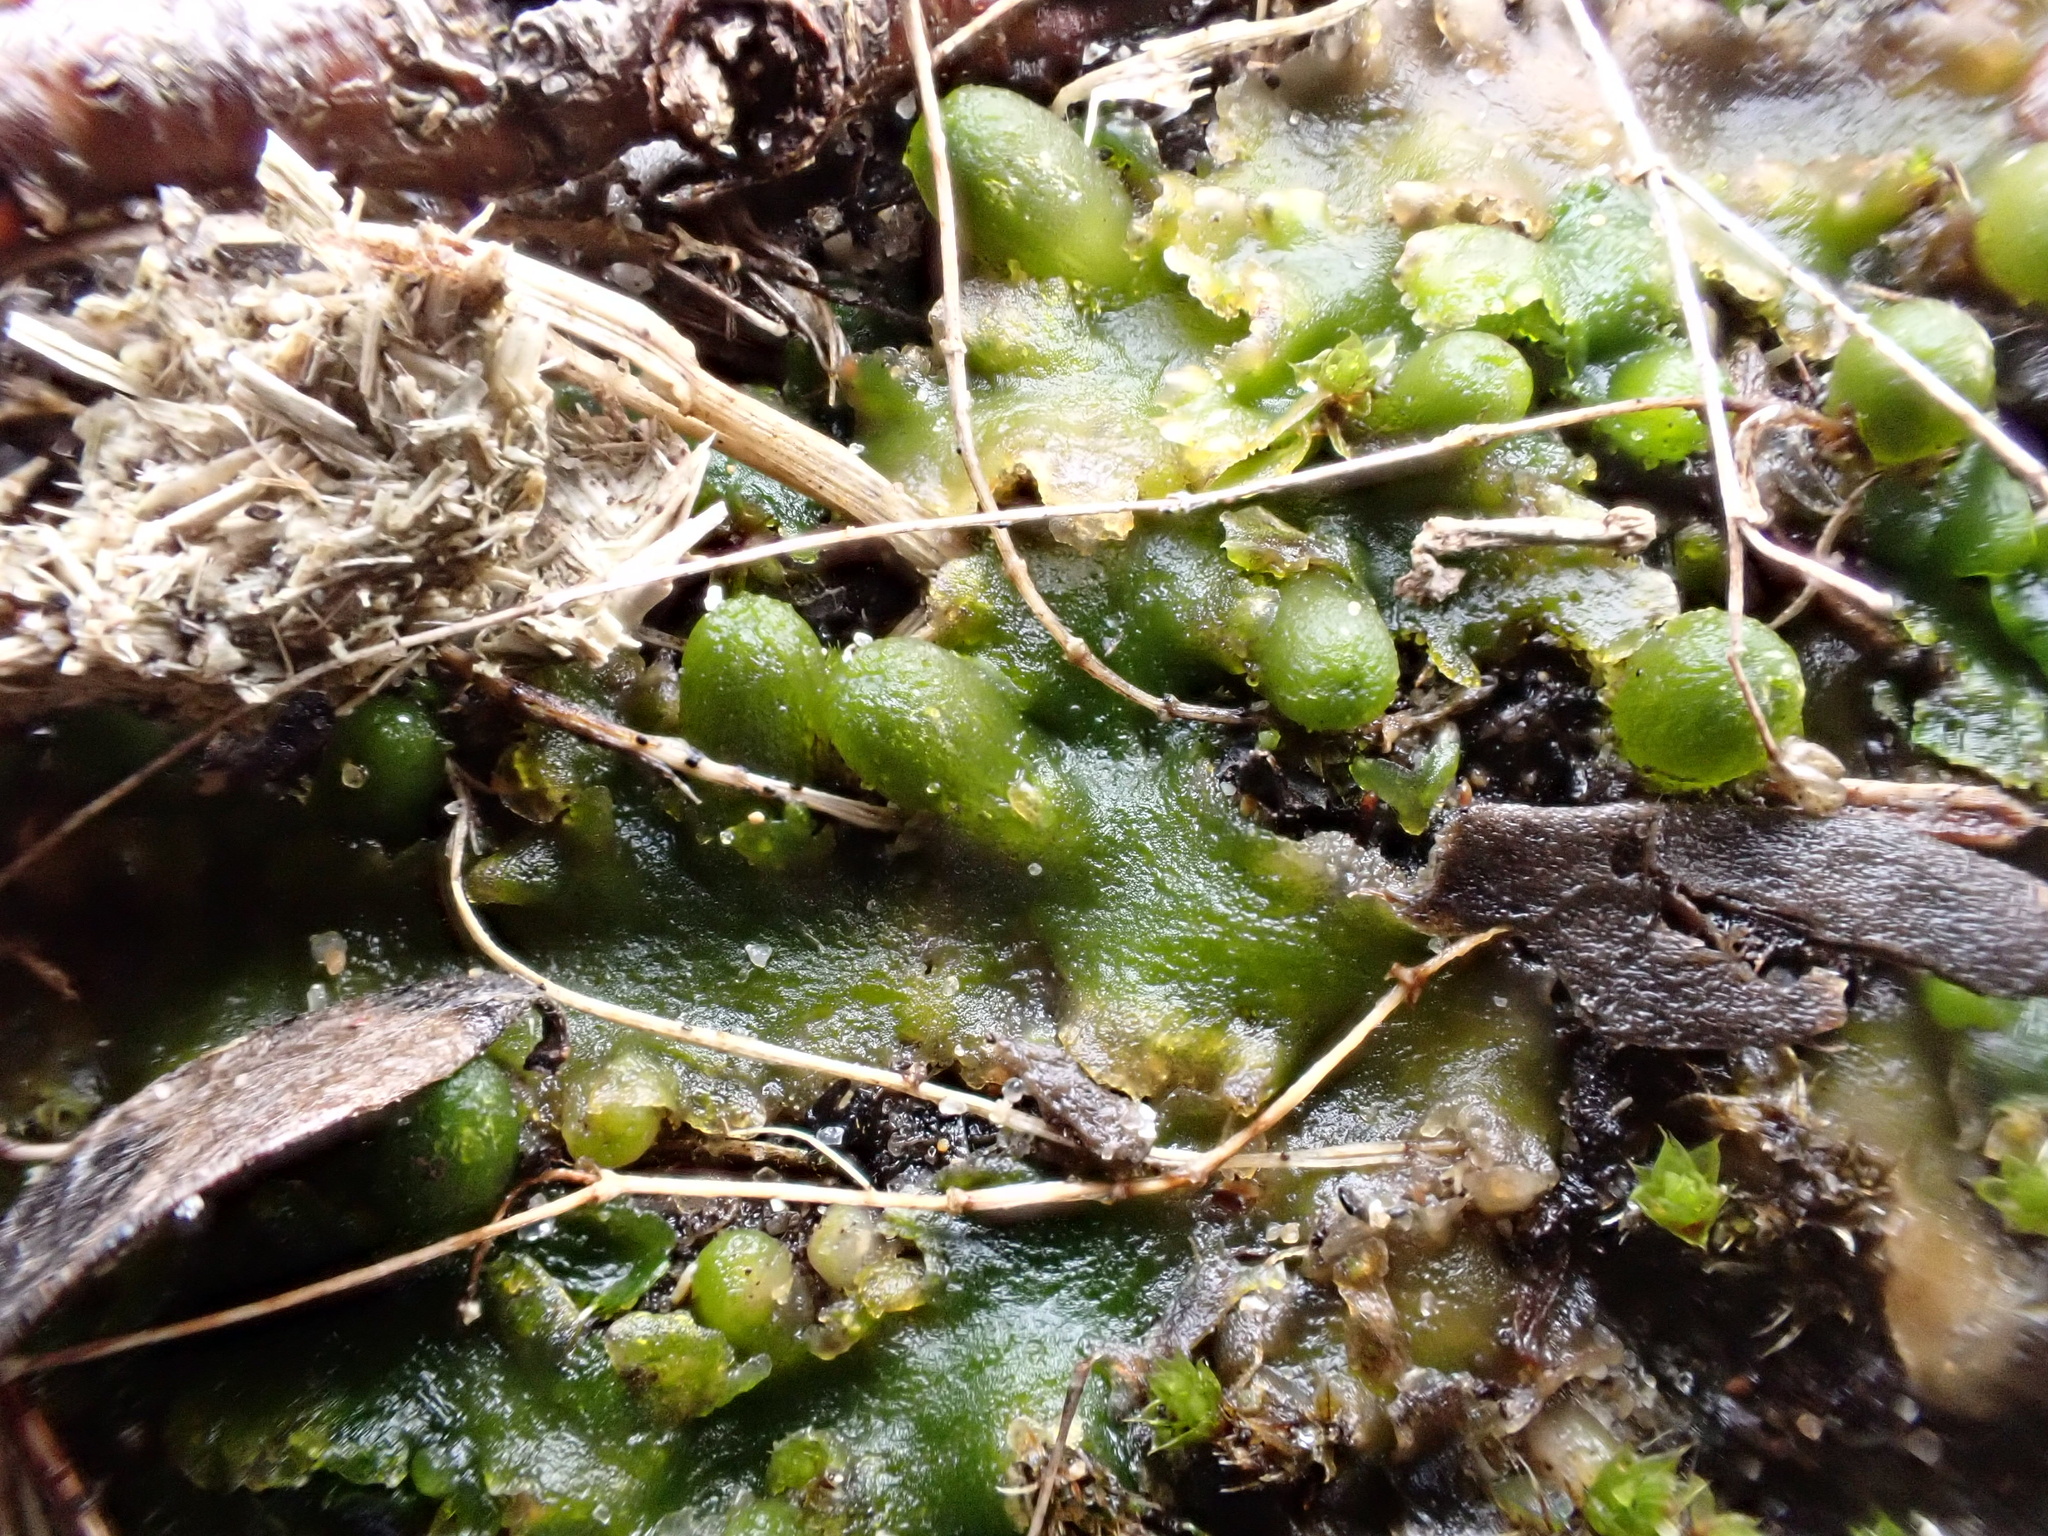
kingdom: Plantae
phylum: Marchantiophyta
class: Jungermanniopsida
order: Metzgeriales
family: Aneuraceae
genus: Aneura
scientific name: Aneura pinguis
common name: Common greasewort
